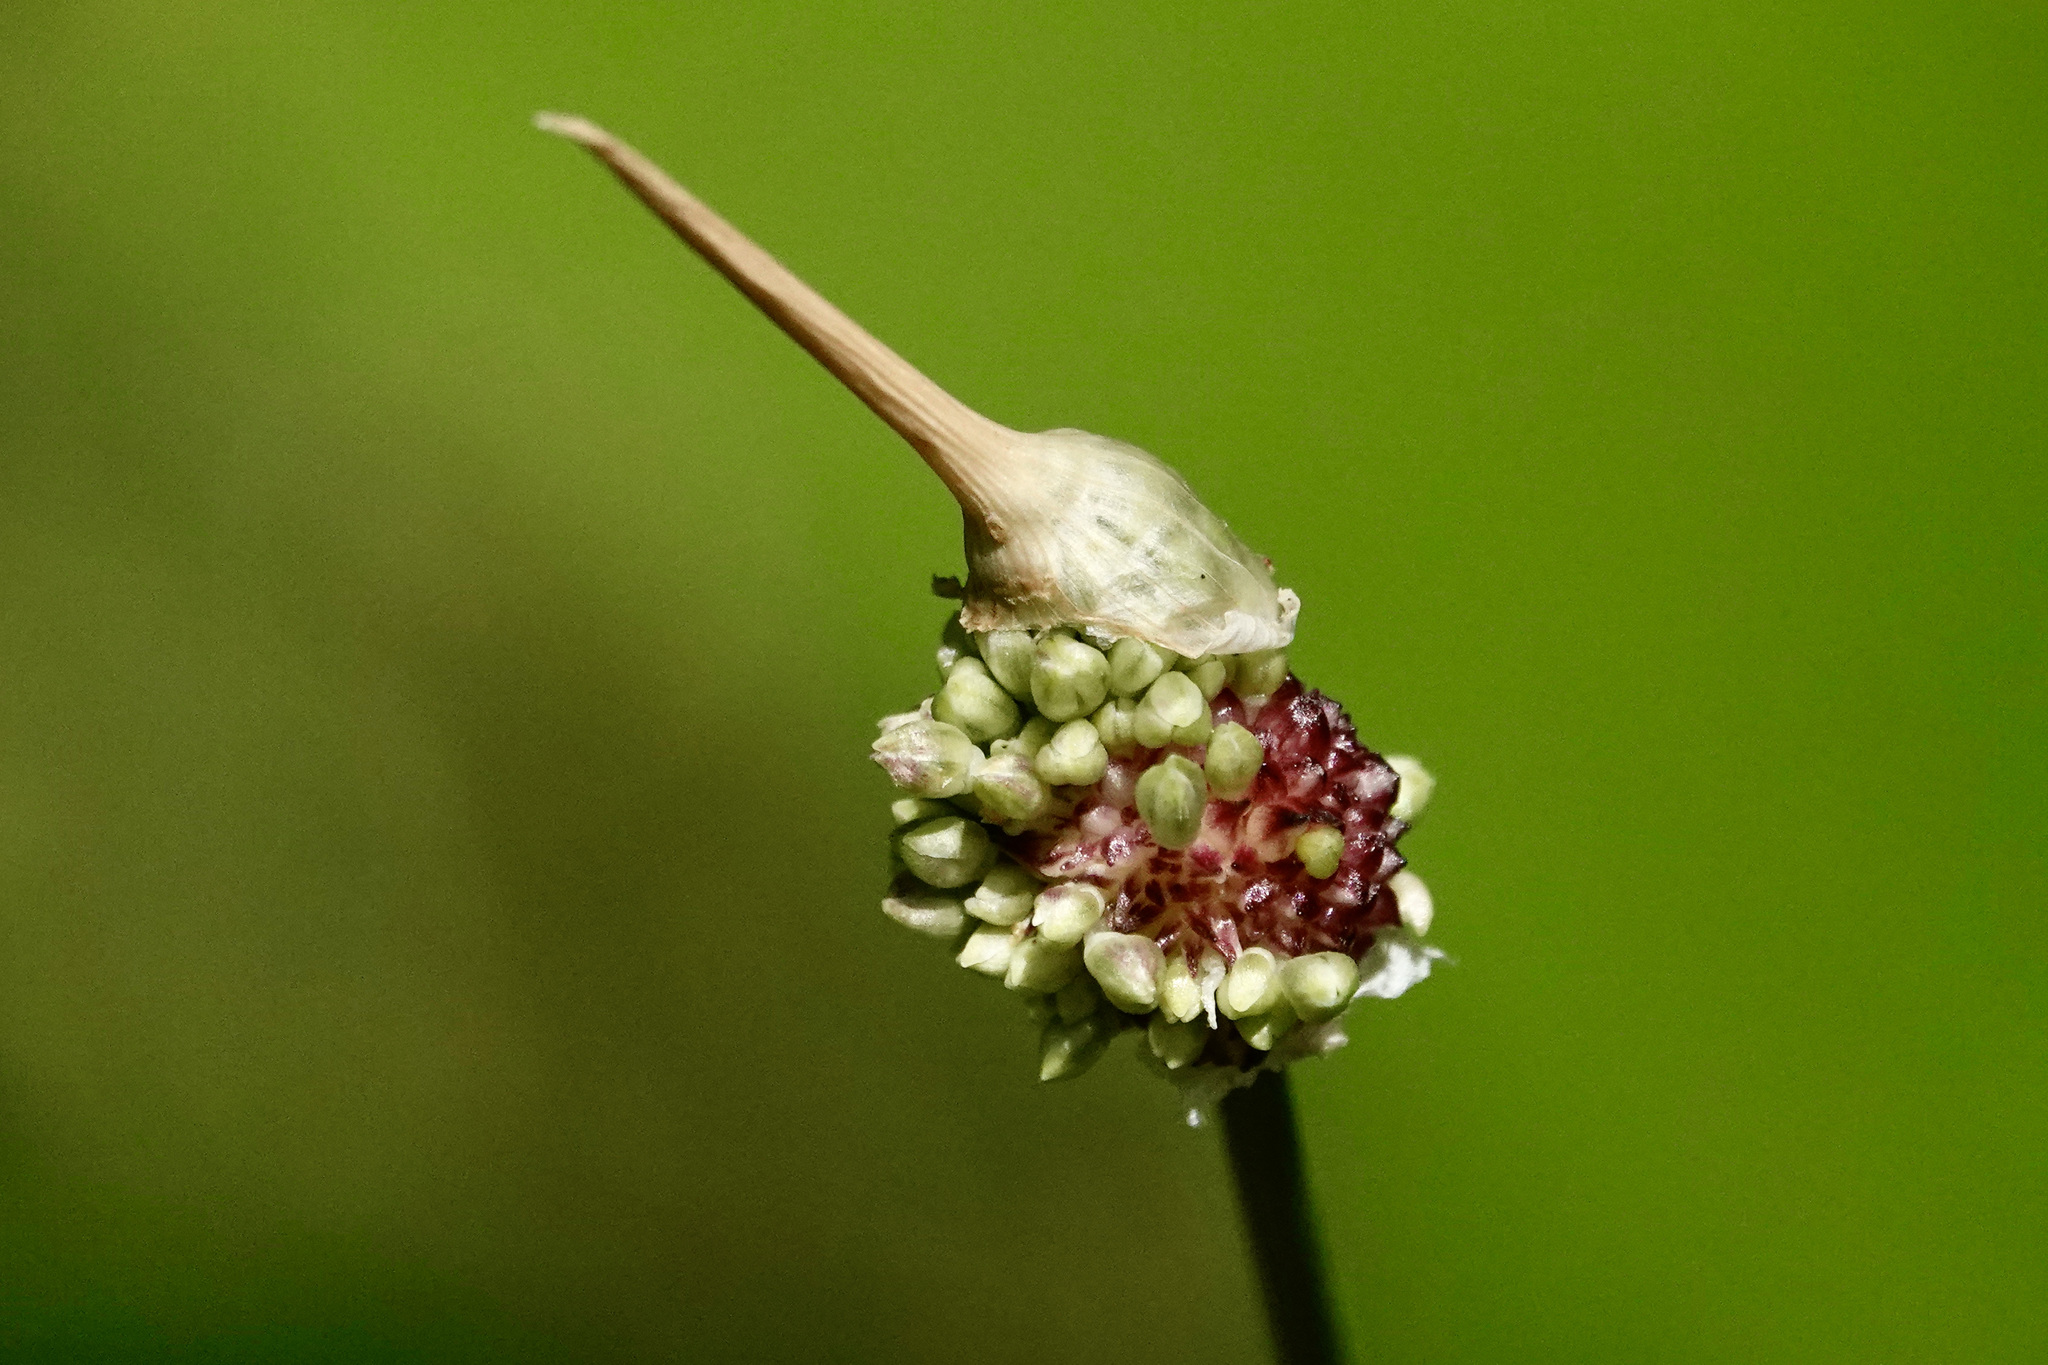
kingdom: Plantae
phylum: Tracheophyta
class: Liliopsida
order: Asparagales
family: Amaryllidaceae
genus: Allium
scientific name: Allium vineale
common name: Crow garlic
